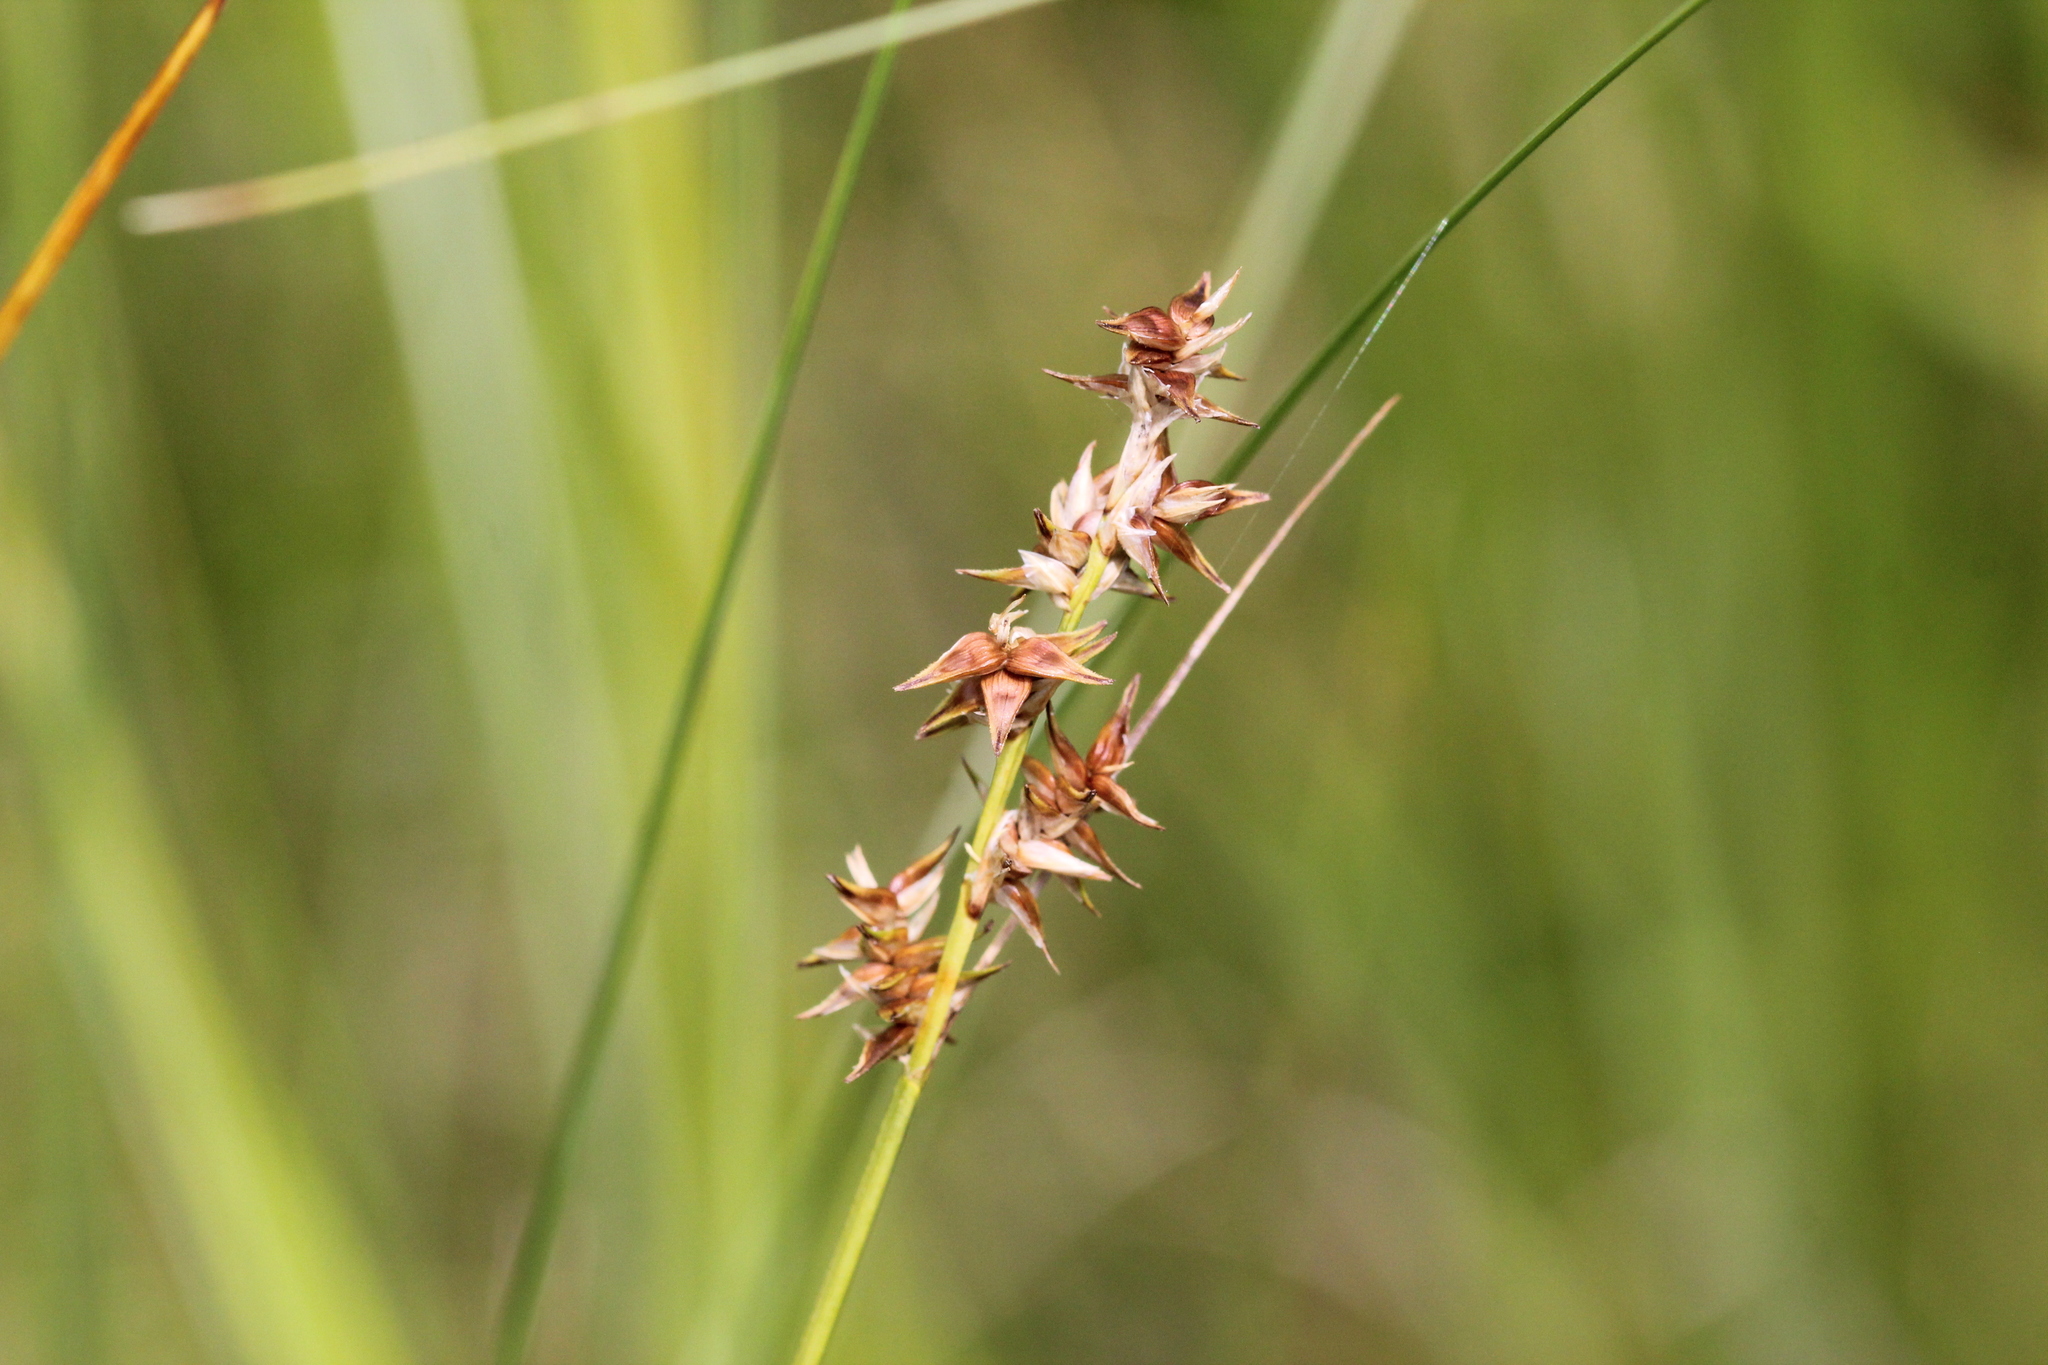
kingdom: Plantae
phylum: Tracheophyta
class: Liliopsida
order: Poales
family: Cyperaceae
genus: Carex
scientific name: Carex echinata
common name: Star sedge
